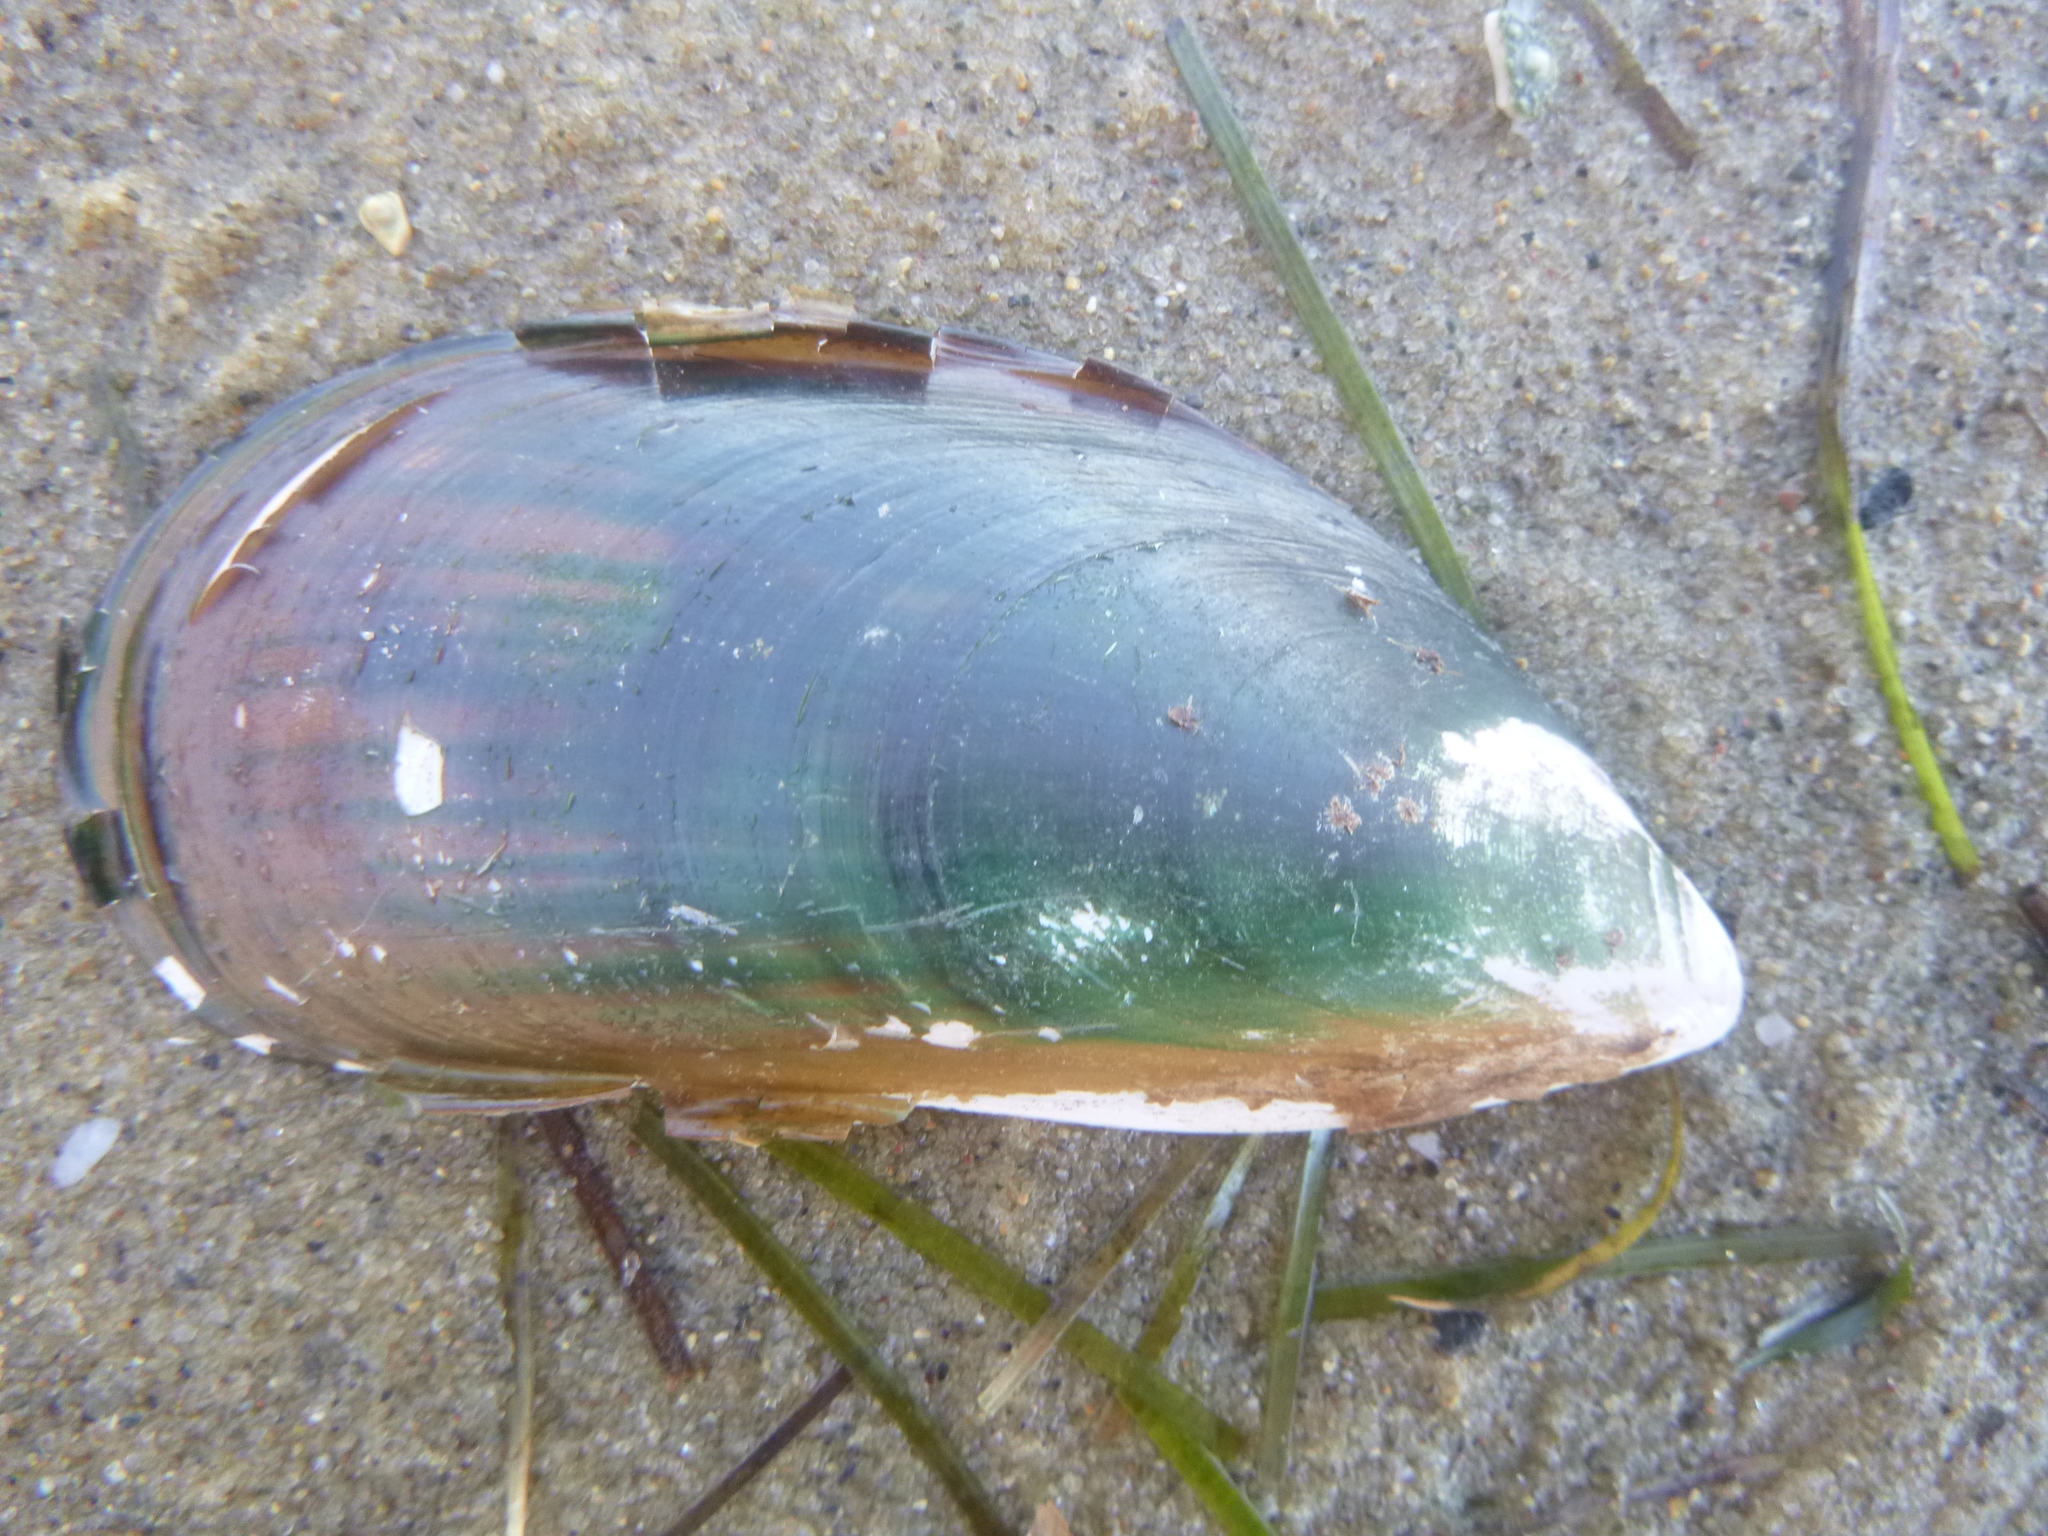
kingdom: Animalia
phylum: Mollusca
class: Bivalvia
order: Mytilida
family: Mytilidae
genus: Perna
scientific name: Perna canaliculus
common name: New zealand greenshelltm
